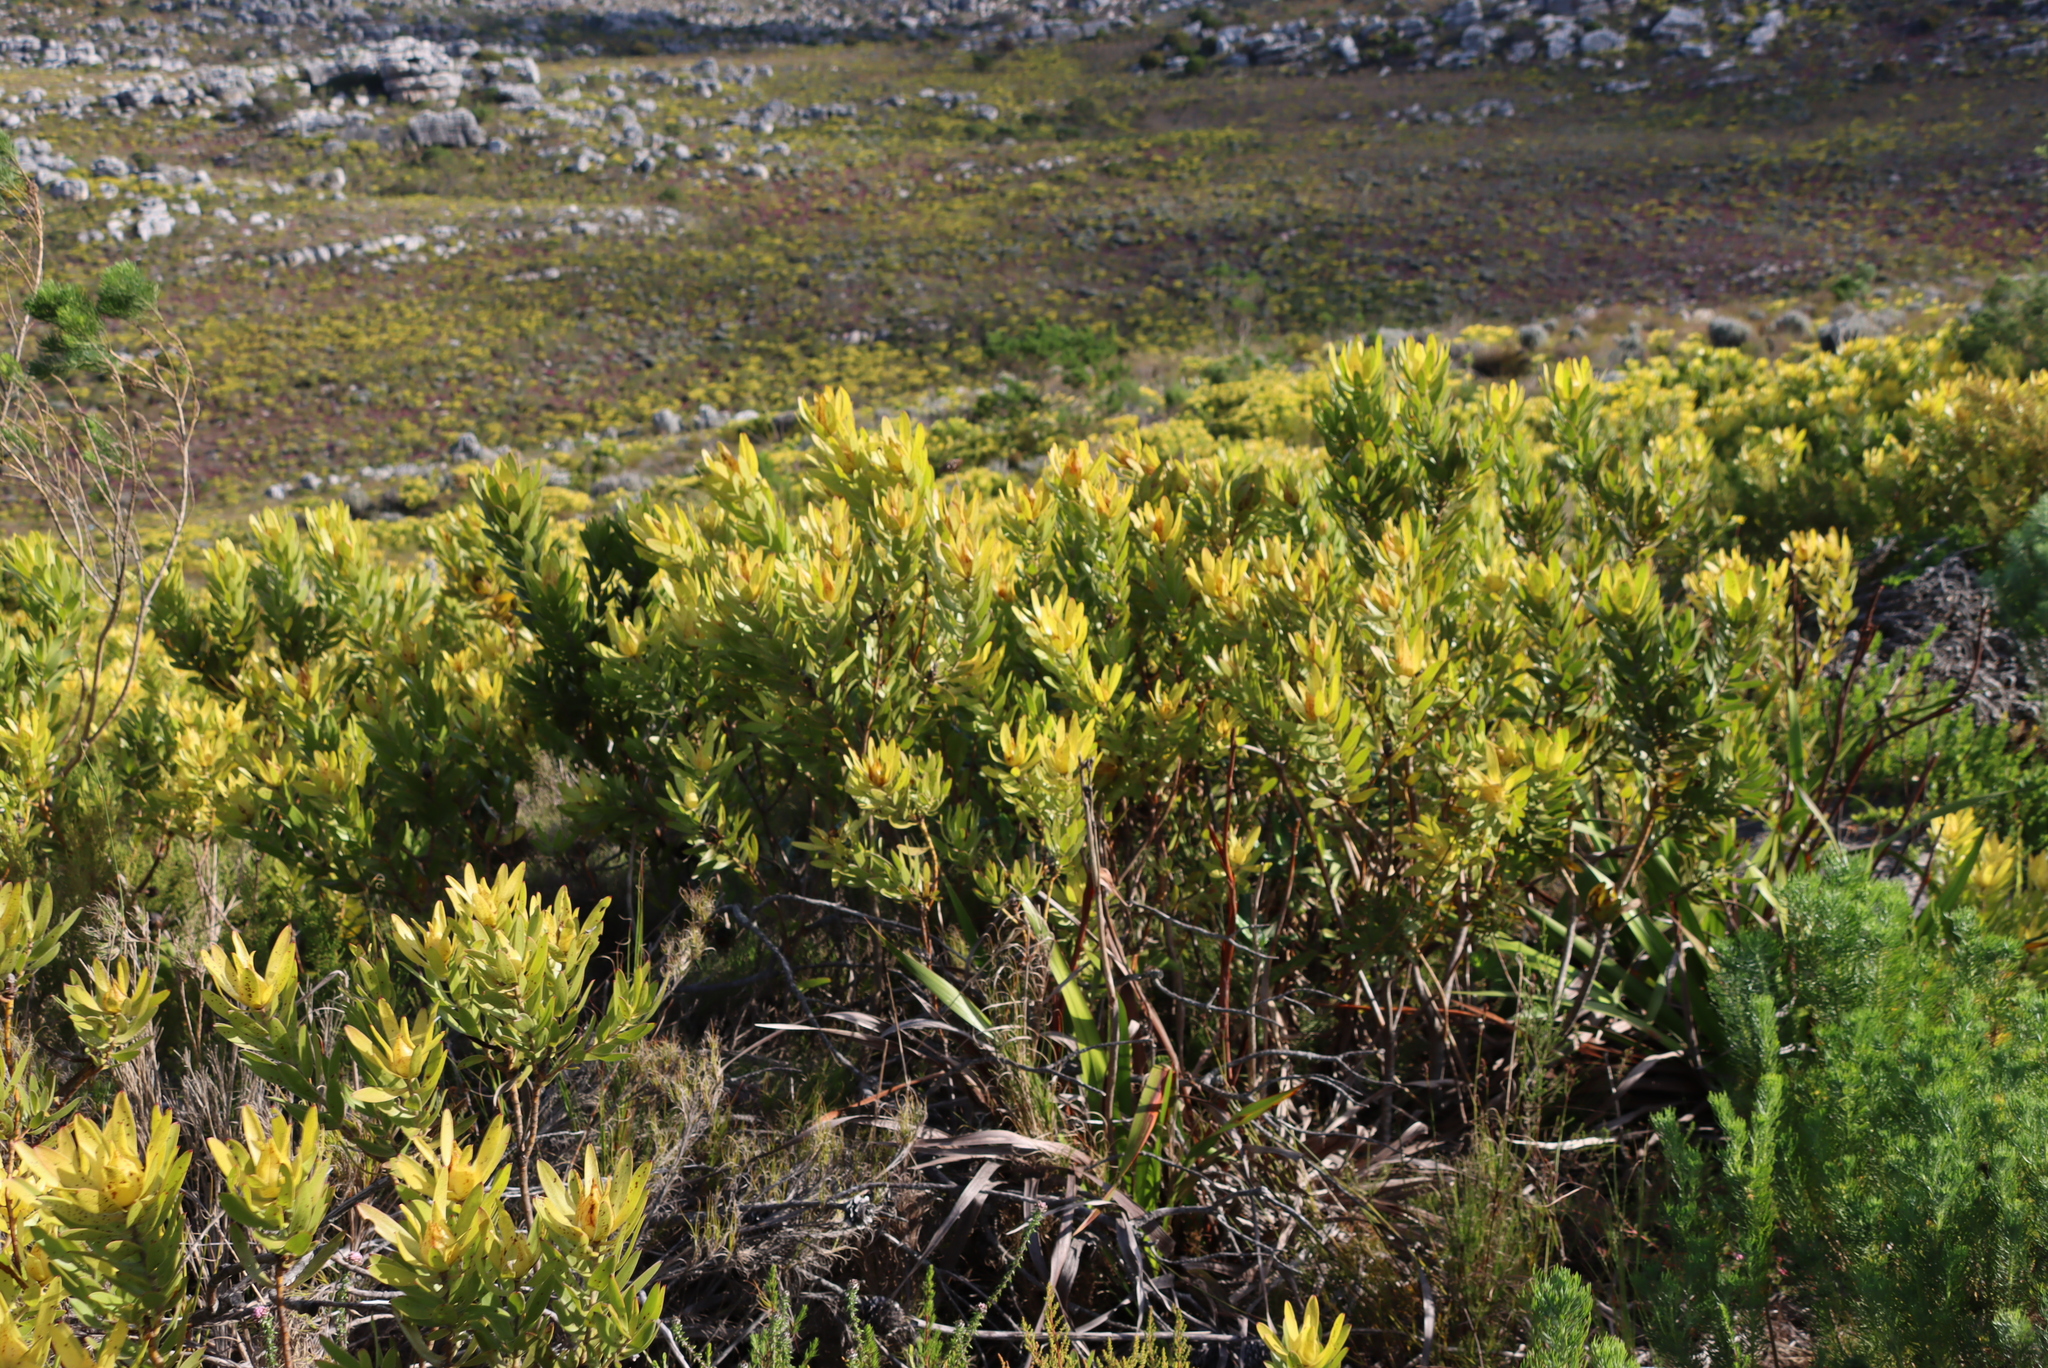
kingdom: Plantae
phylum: Tracheophyta
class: Magnoliopsida
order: Proteales
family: Proteaceae
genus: Leucadendron
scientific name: Leucadendron laureolum
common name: Golden sunshinebush
